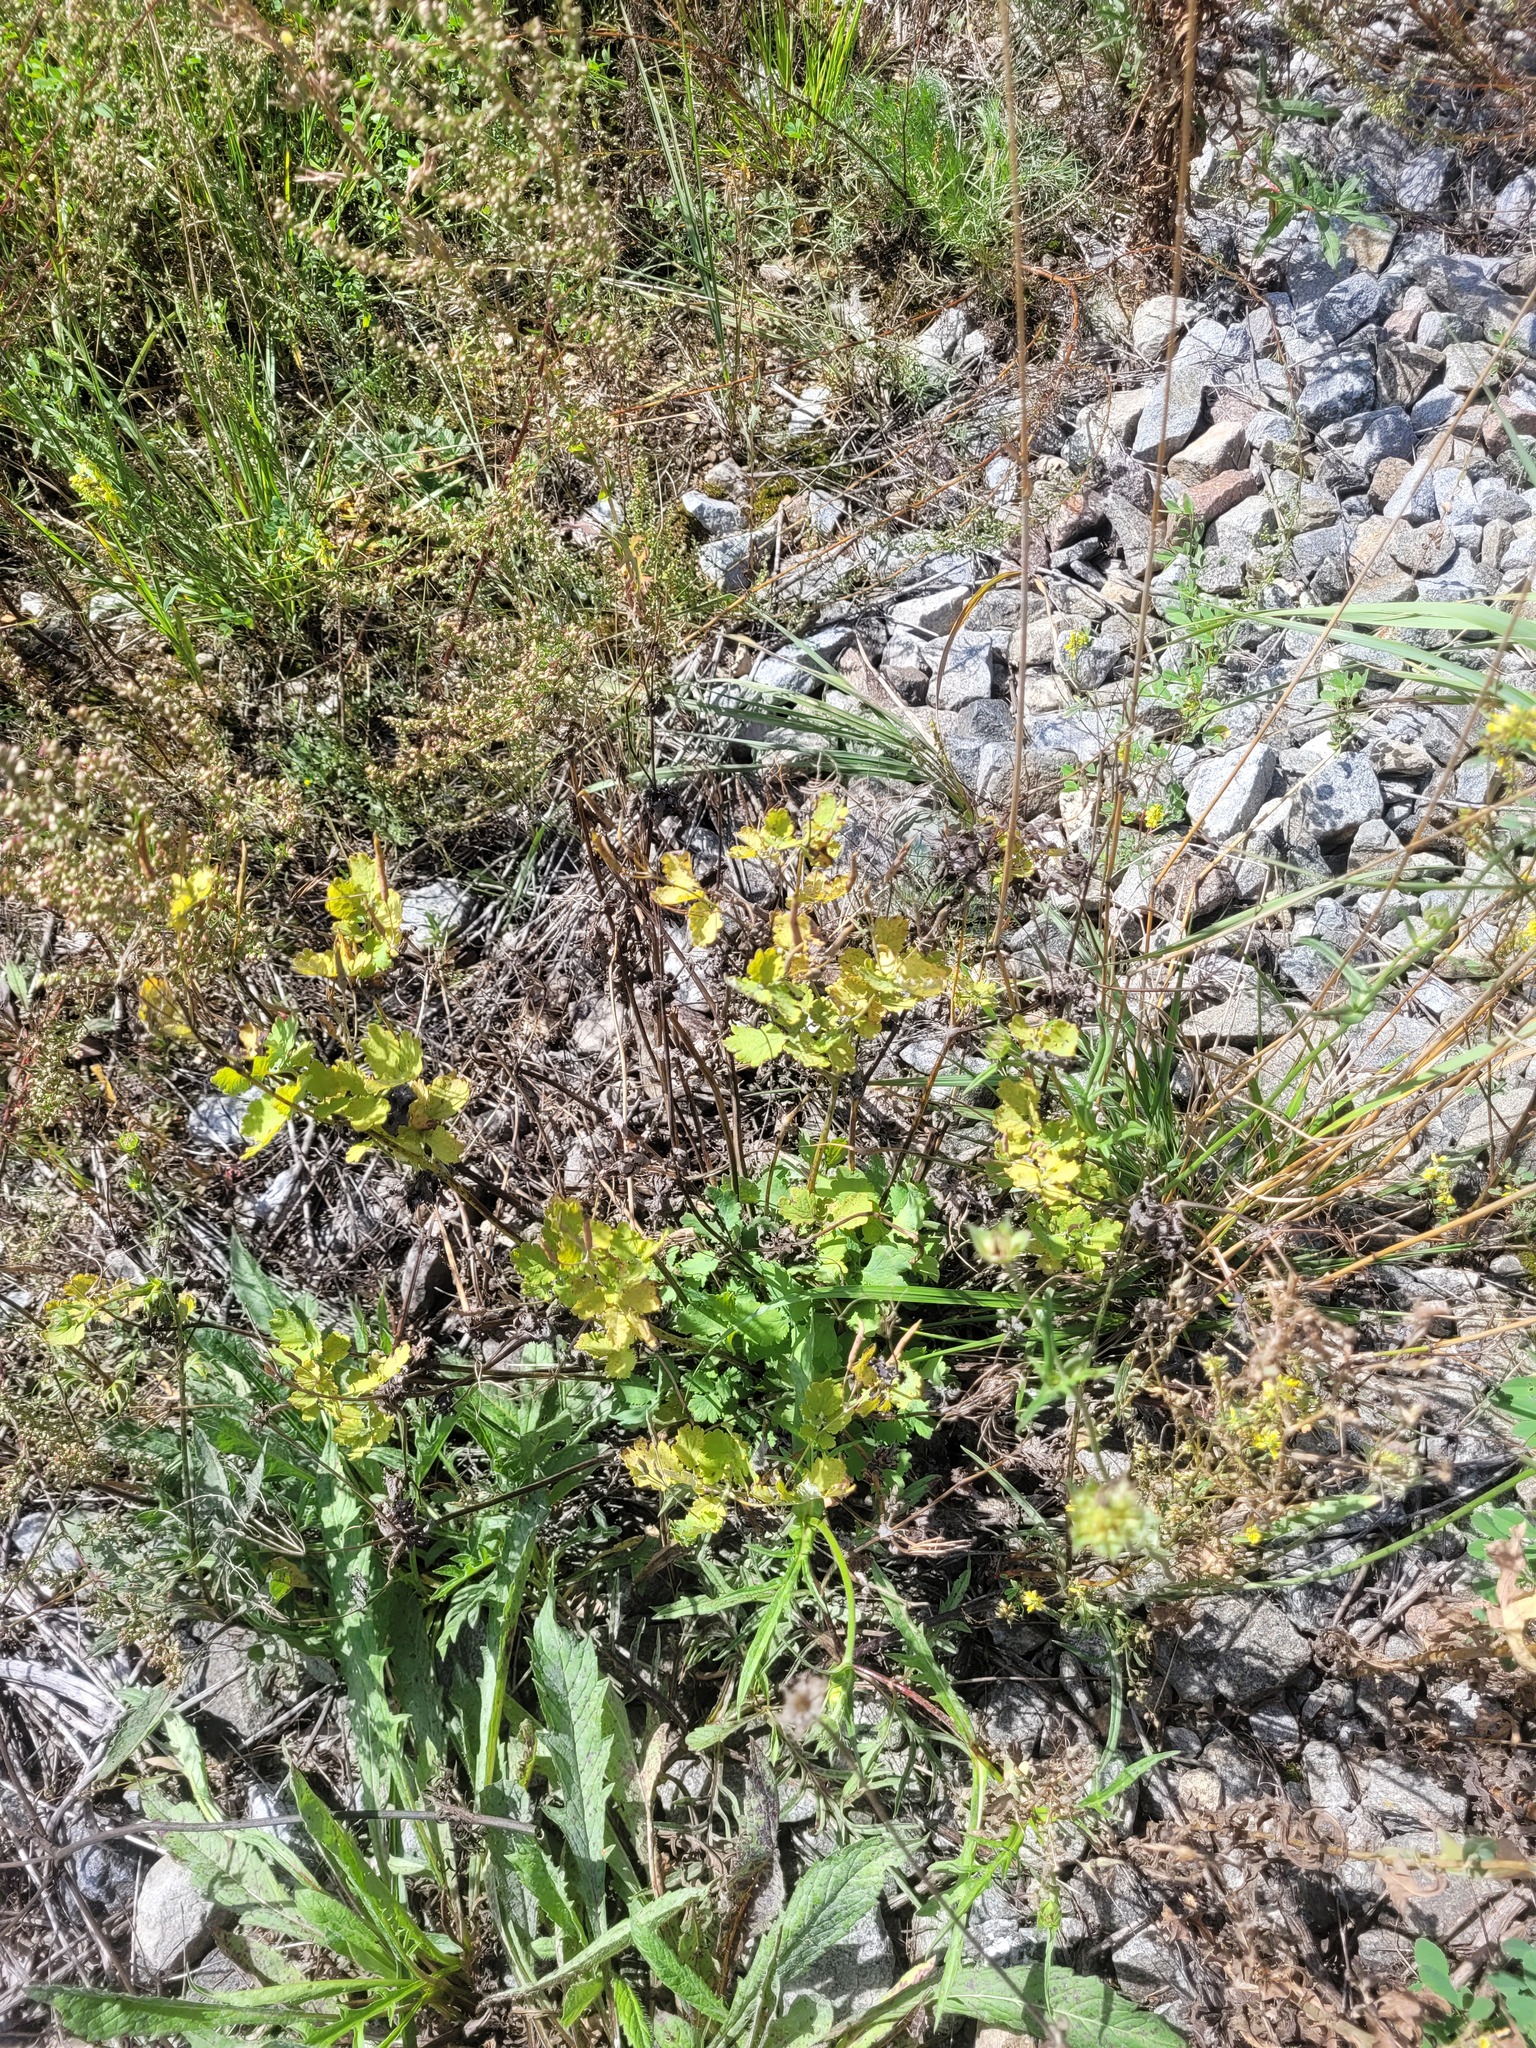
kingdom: Plantae
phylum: Tracheophyta
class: Magnoliopsida
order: Ranunculales
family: Papaveraceae
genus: Chelidonium
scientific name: Chelidonium majus
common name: Greater celandine
